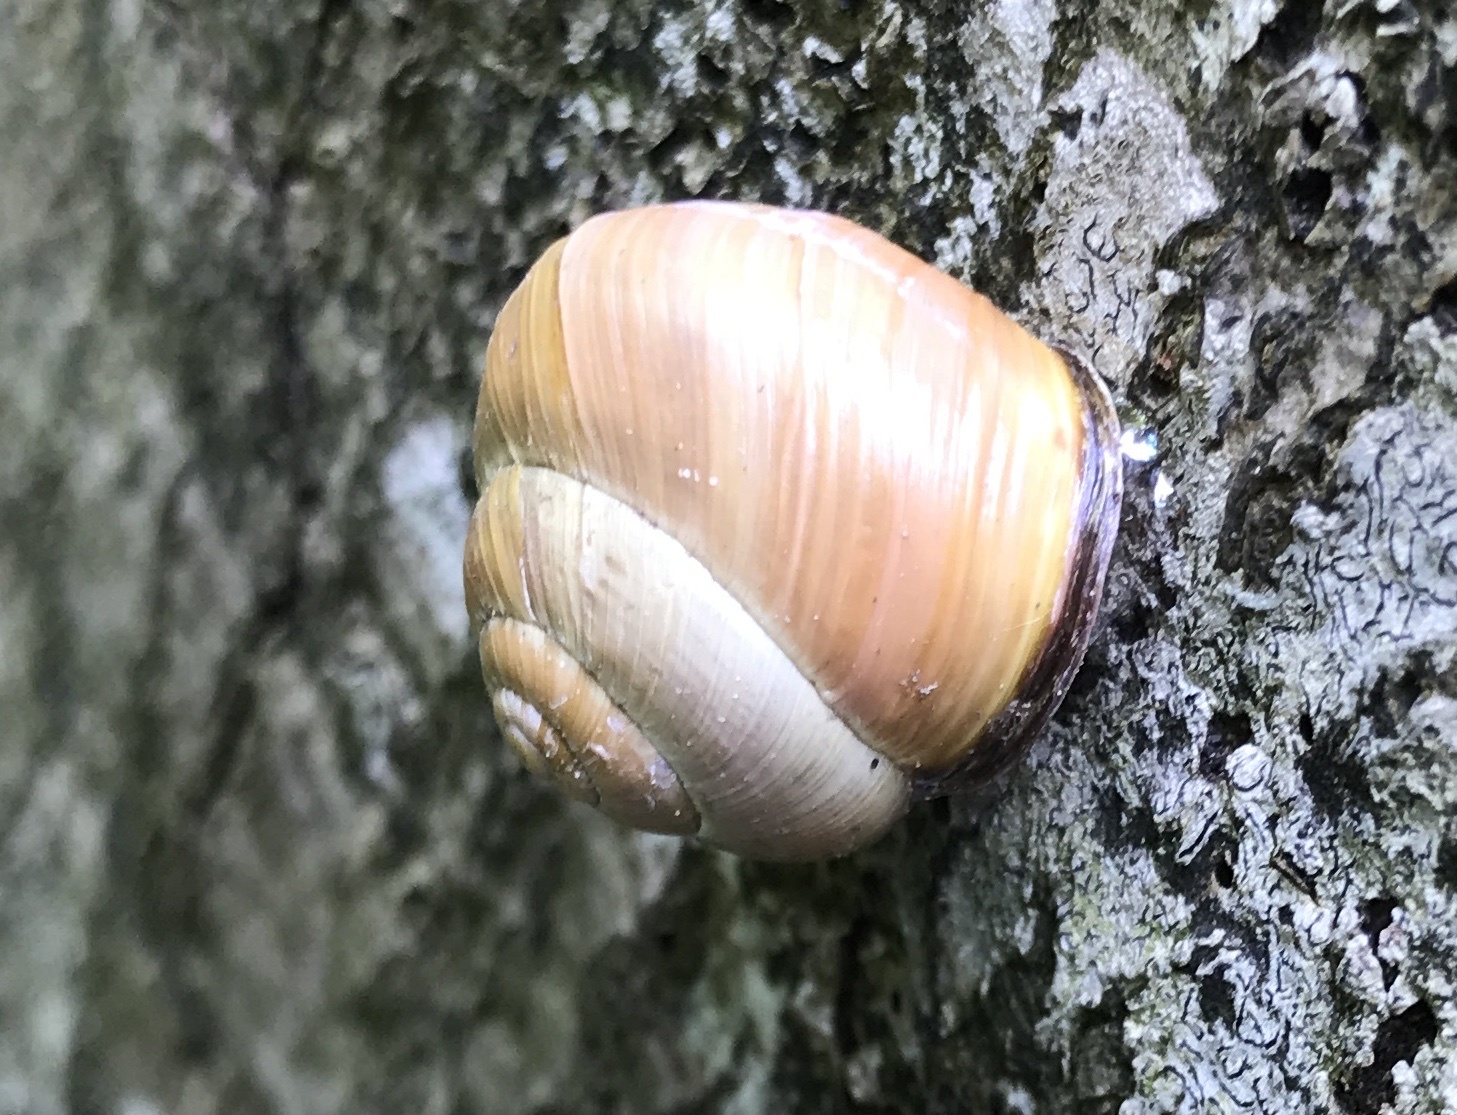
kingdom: Animalia
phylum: Mollusca
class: Gastropoda
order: Stylommatophora
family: Helicidae
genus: Cepaea
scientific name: Cepaea nemoralis
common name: Grovesnail
